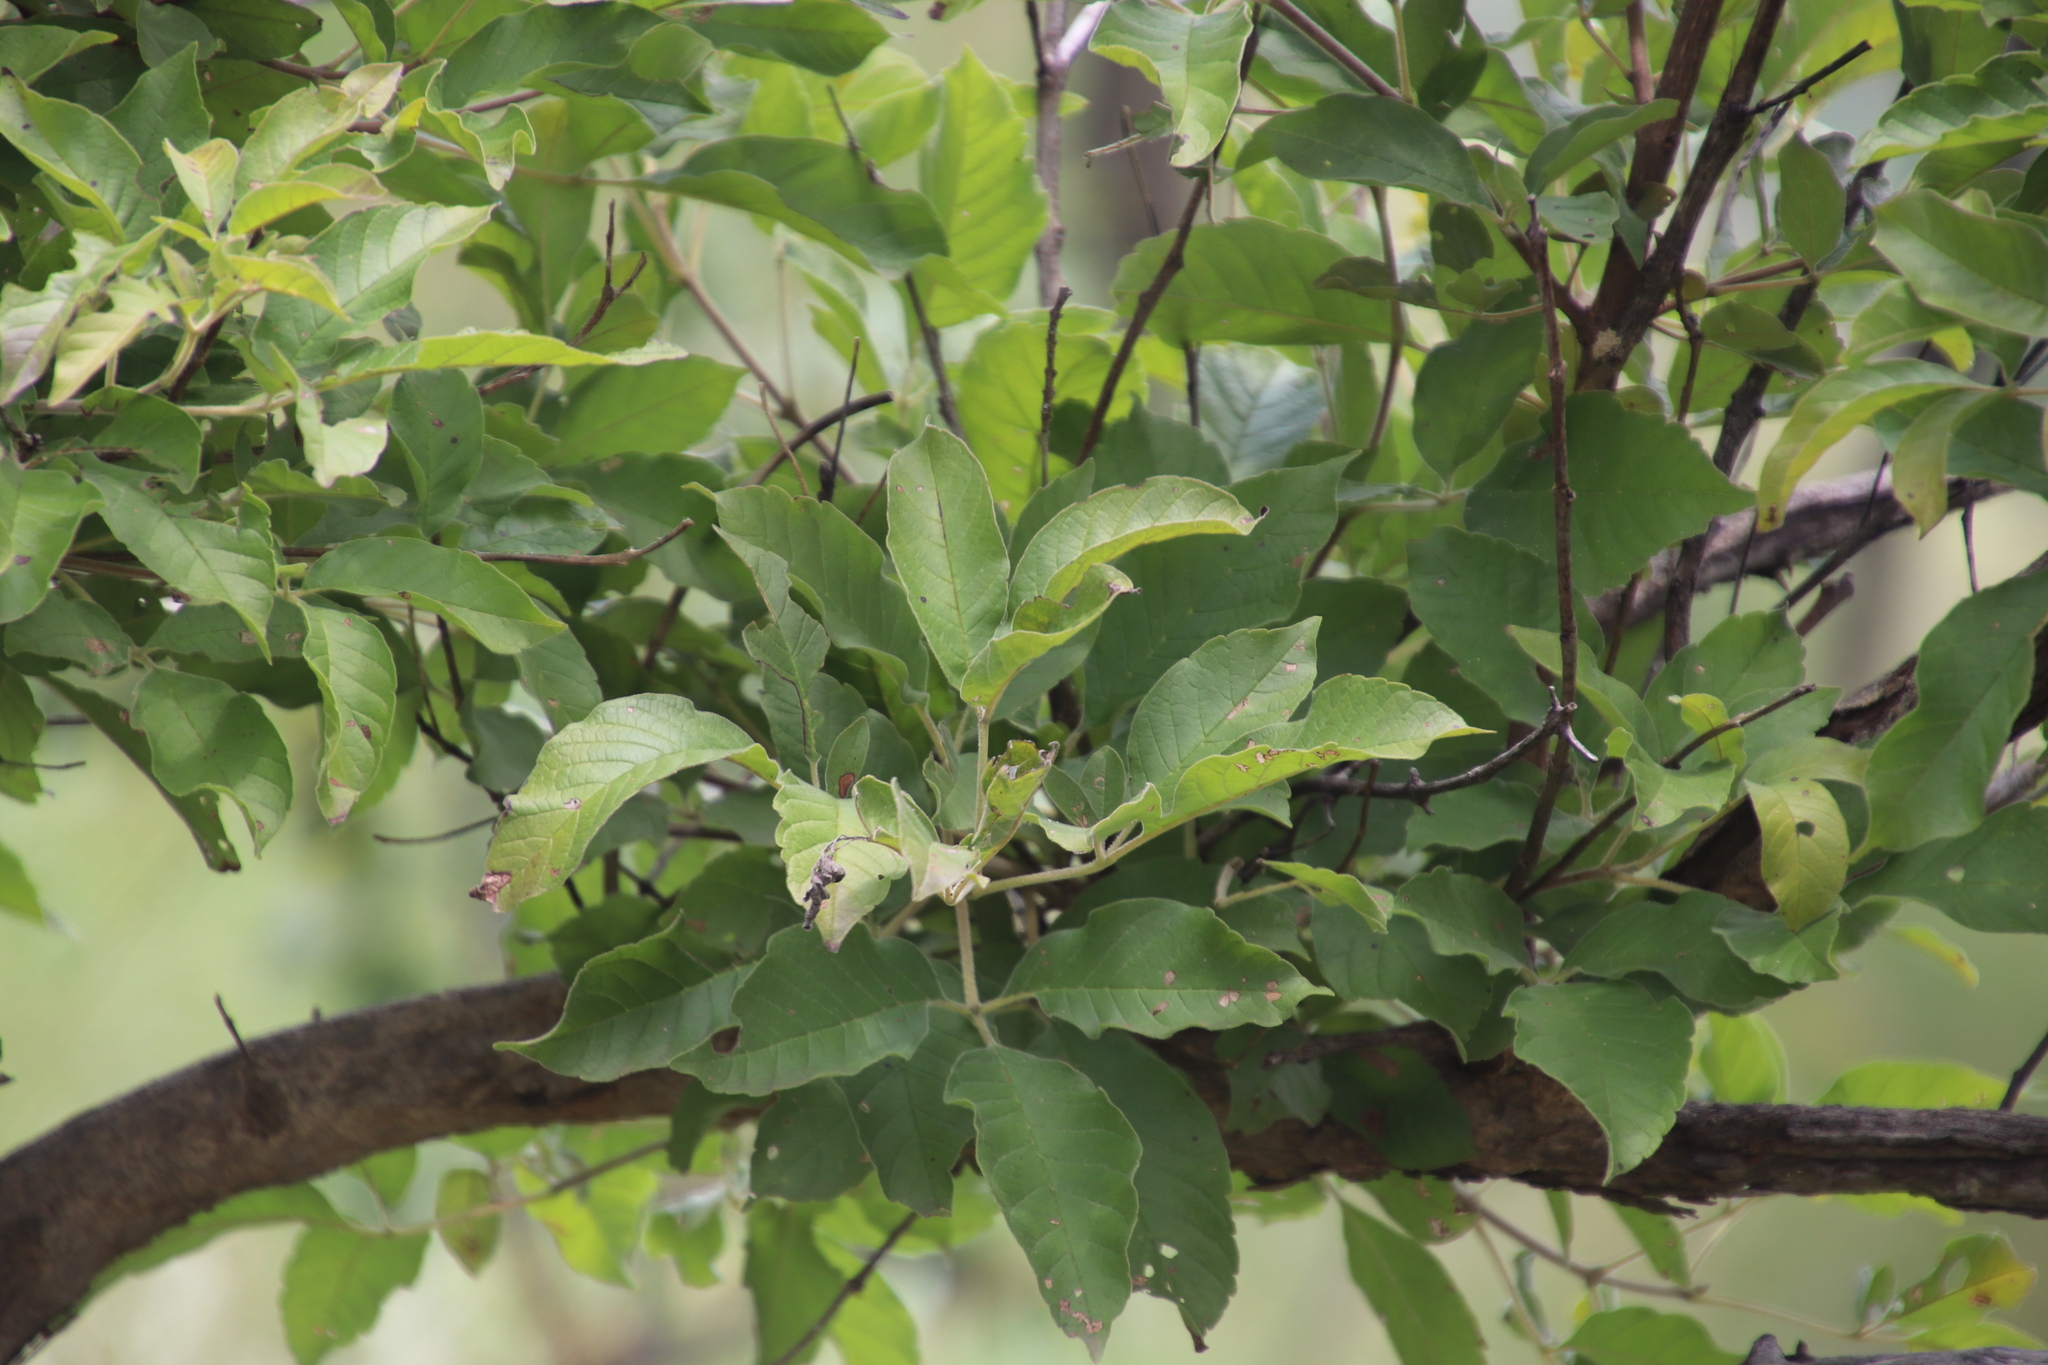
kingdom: Plantae
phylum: Tracheophyta
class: Magnoliopsida
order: Lamiales
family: Lamiaceae
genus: Vitex
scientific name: Vitex obovata
